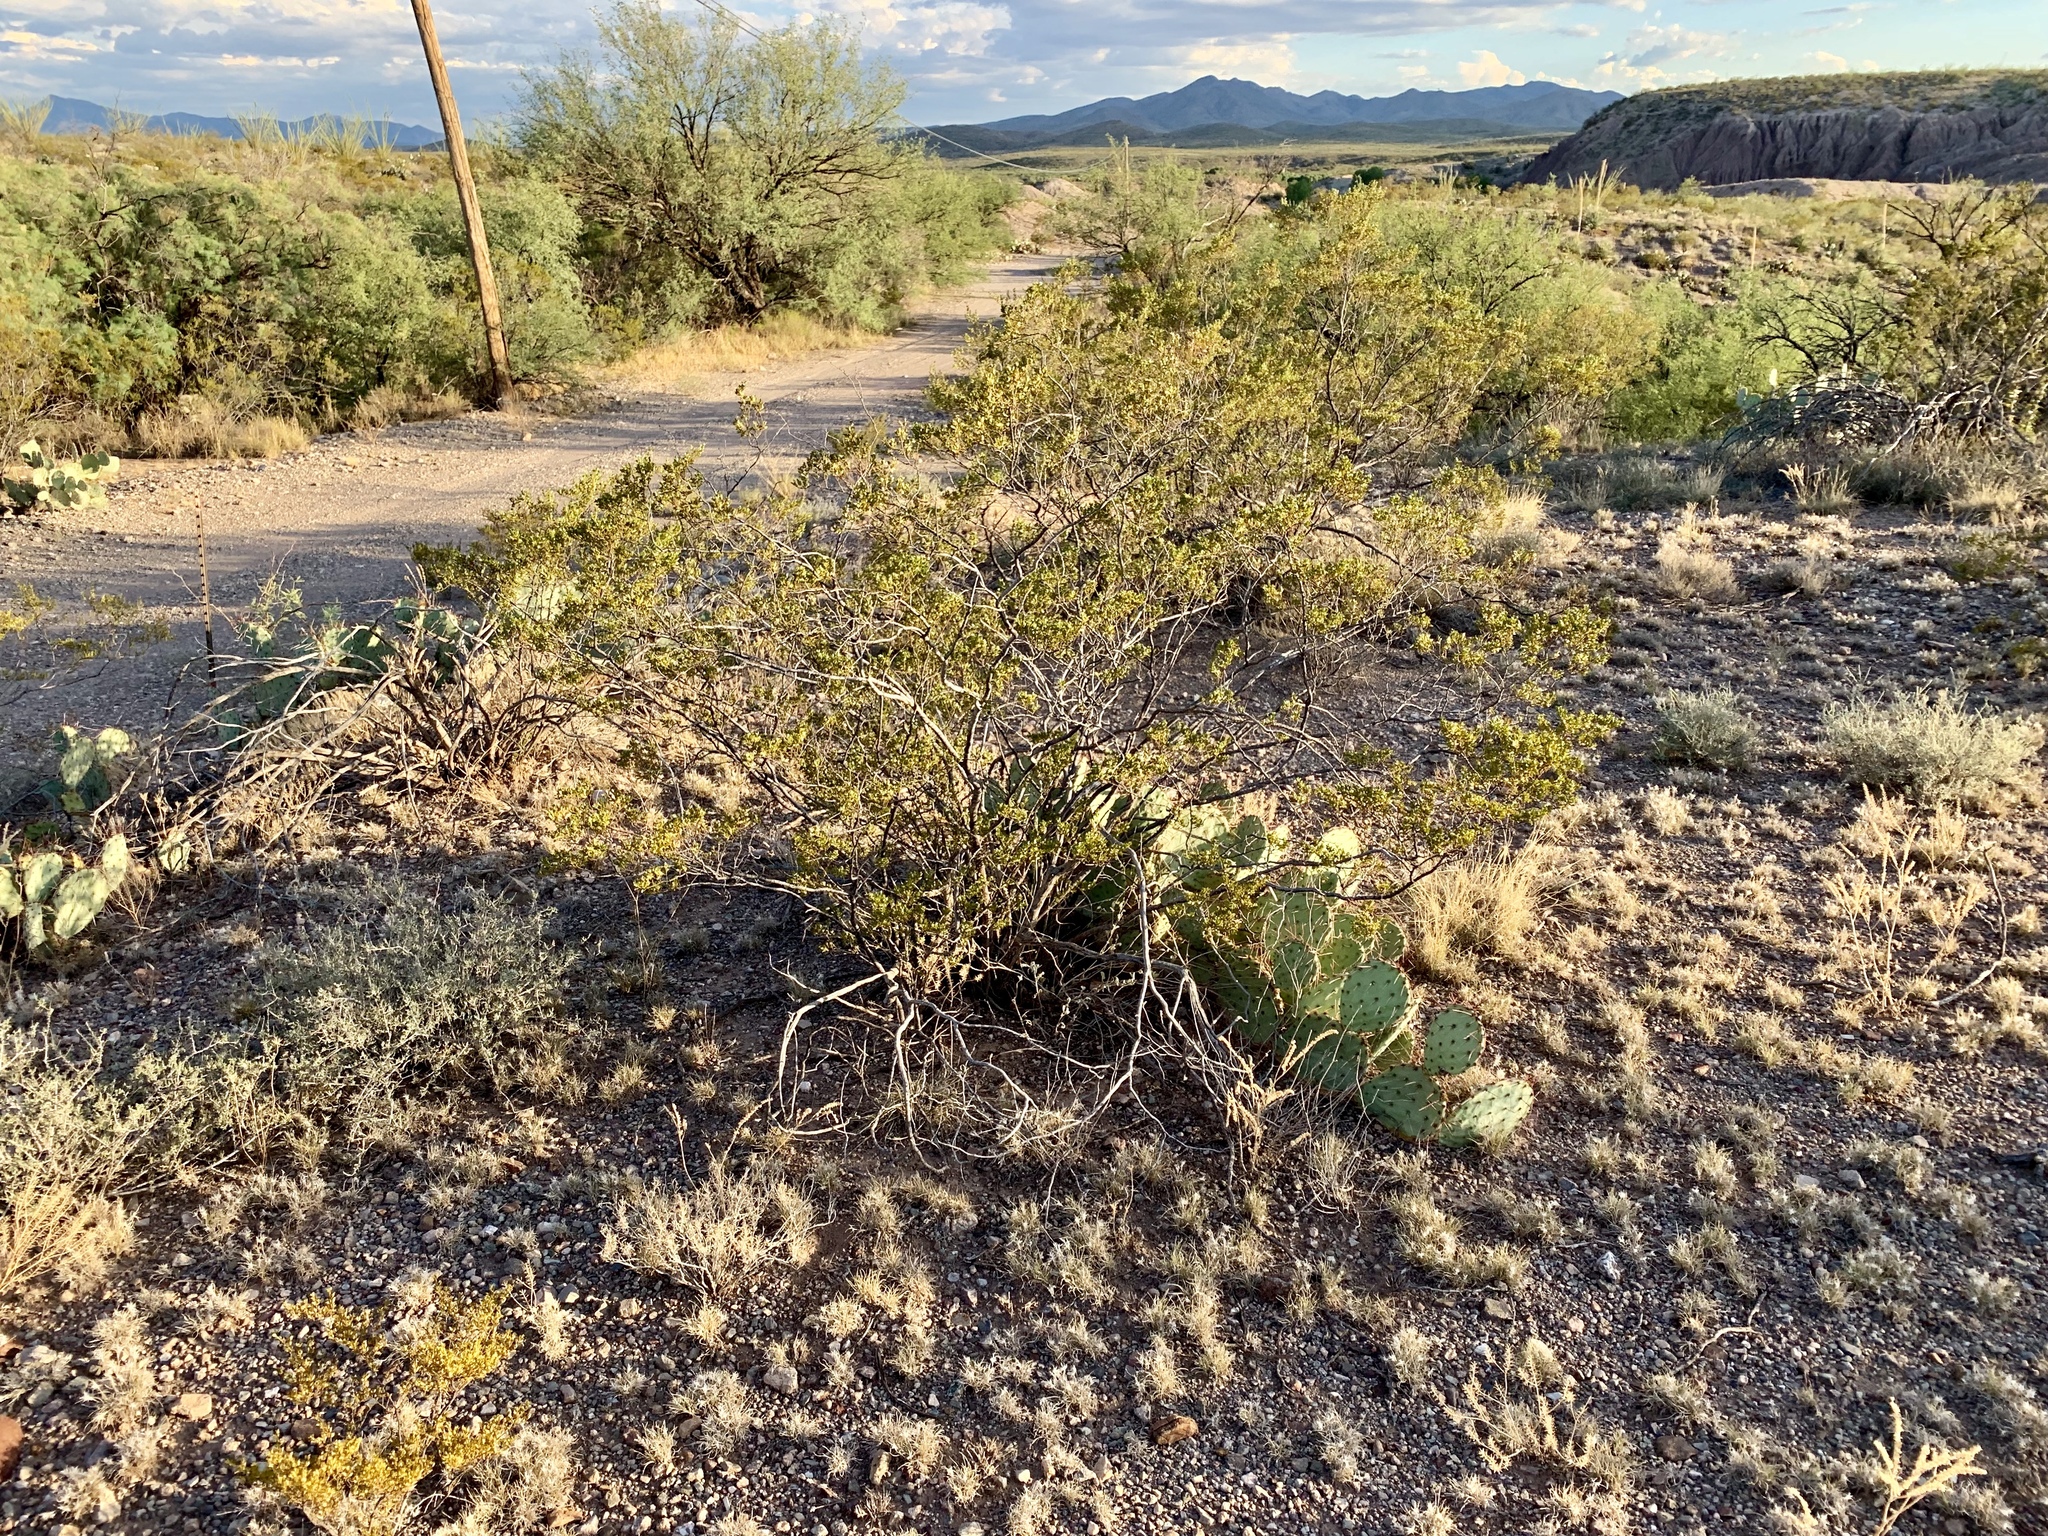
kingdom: Plantae
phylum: Tracheophyta
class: Magnoliopsida
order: Zygophyllales
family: Zygophyllaceae
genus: Larrea
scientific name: Larrea tridentata
